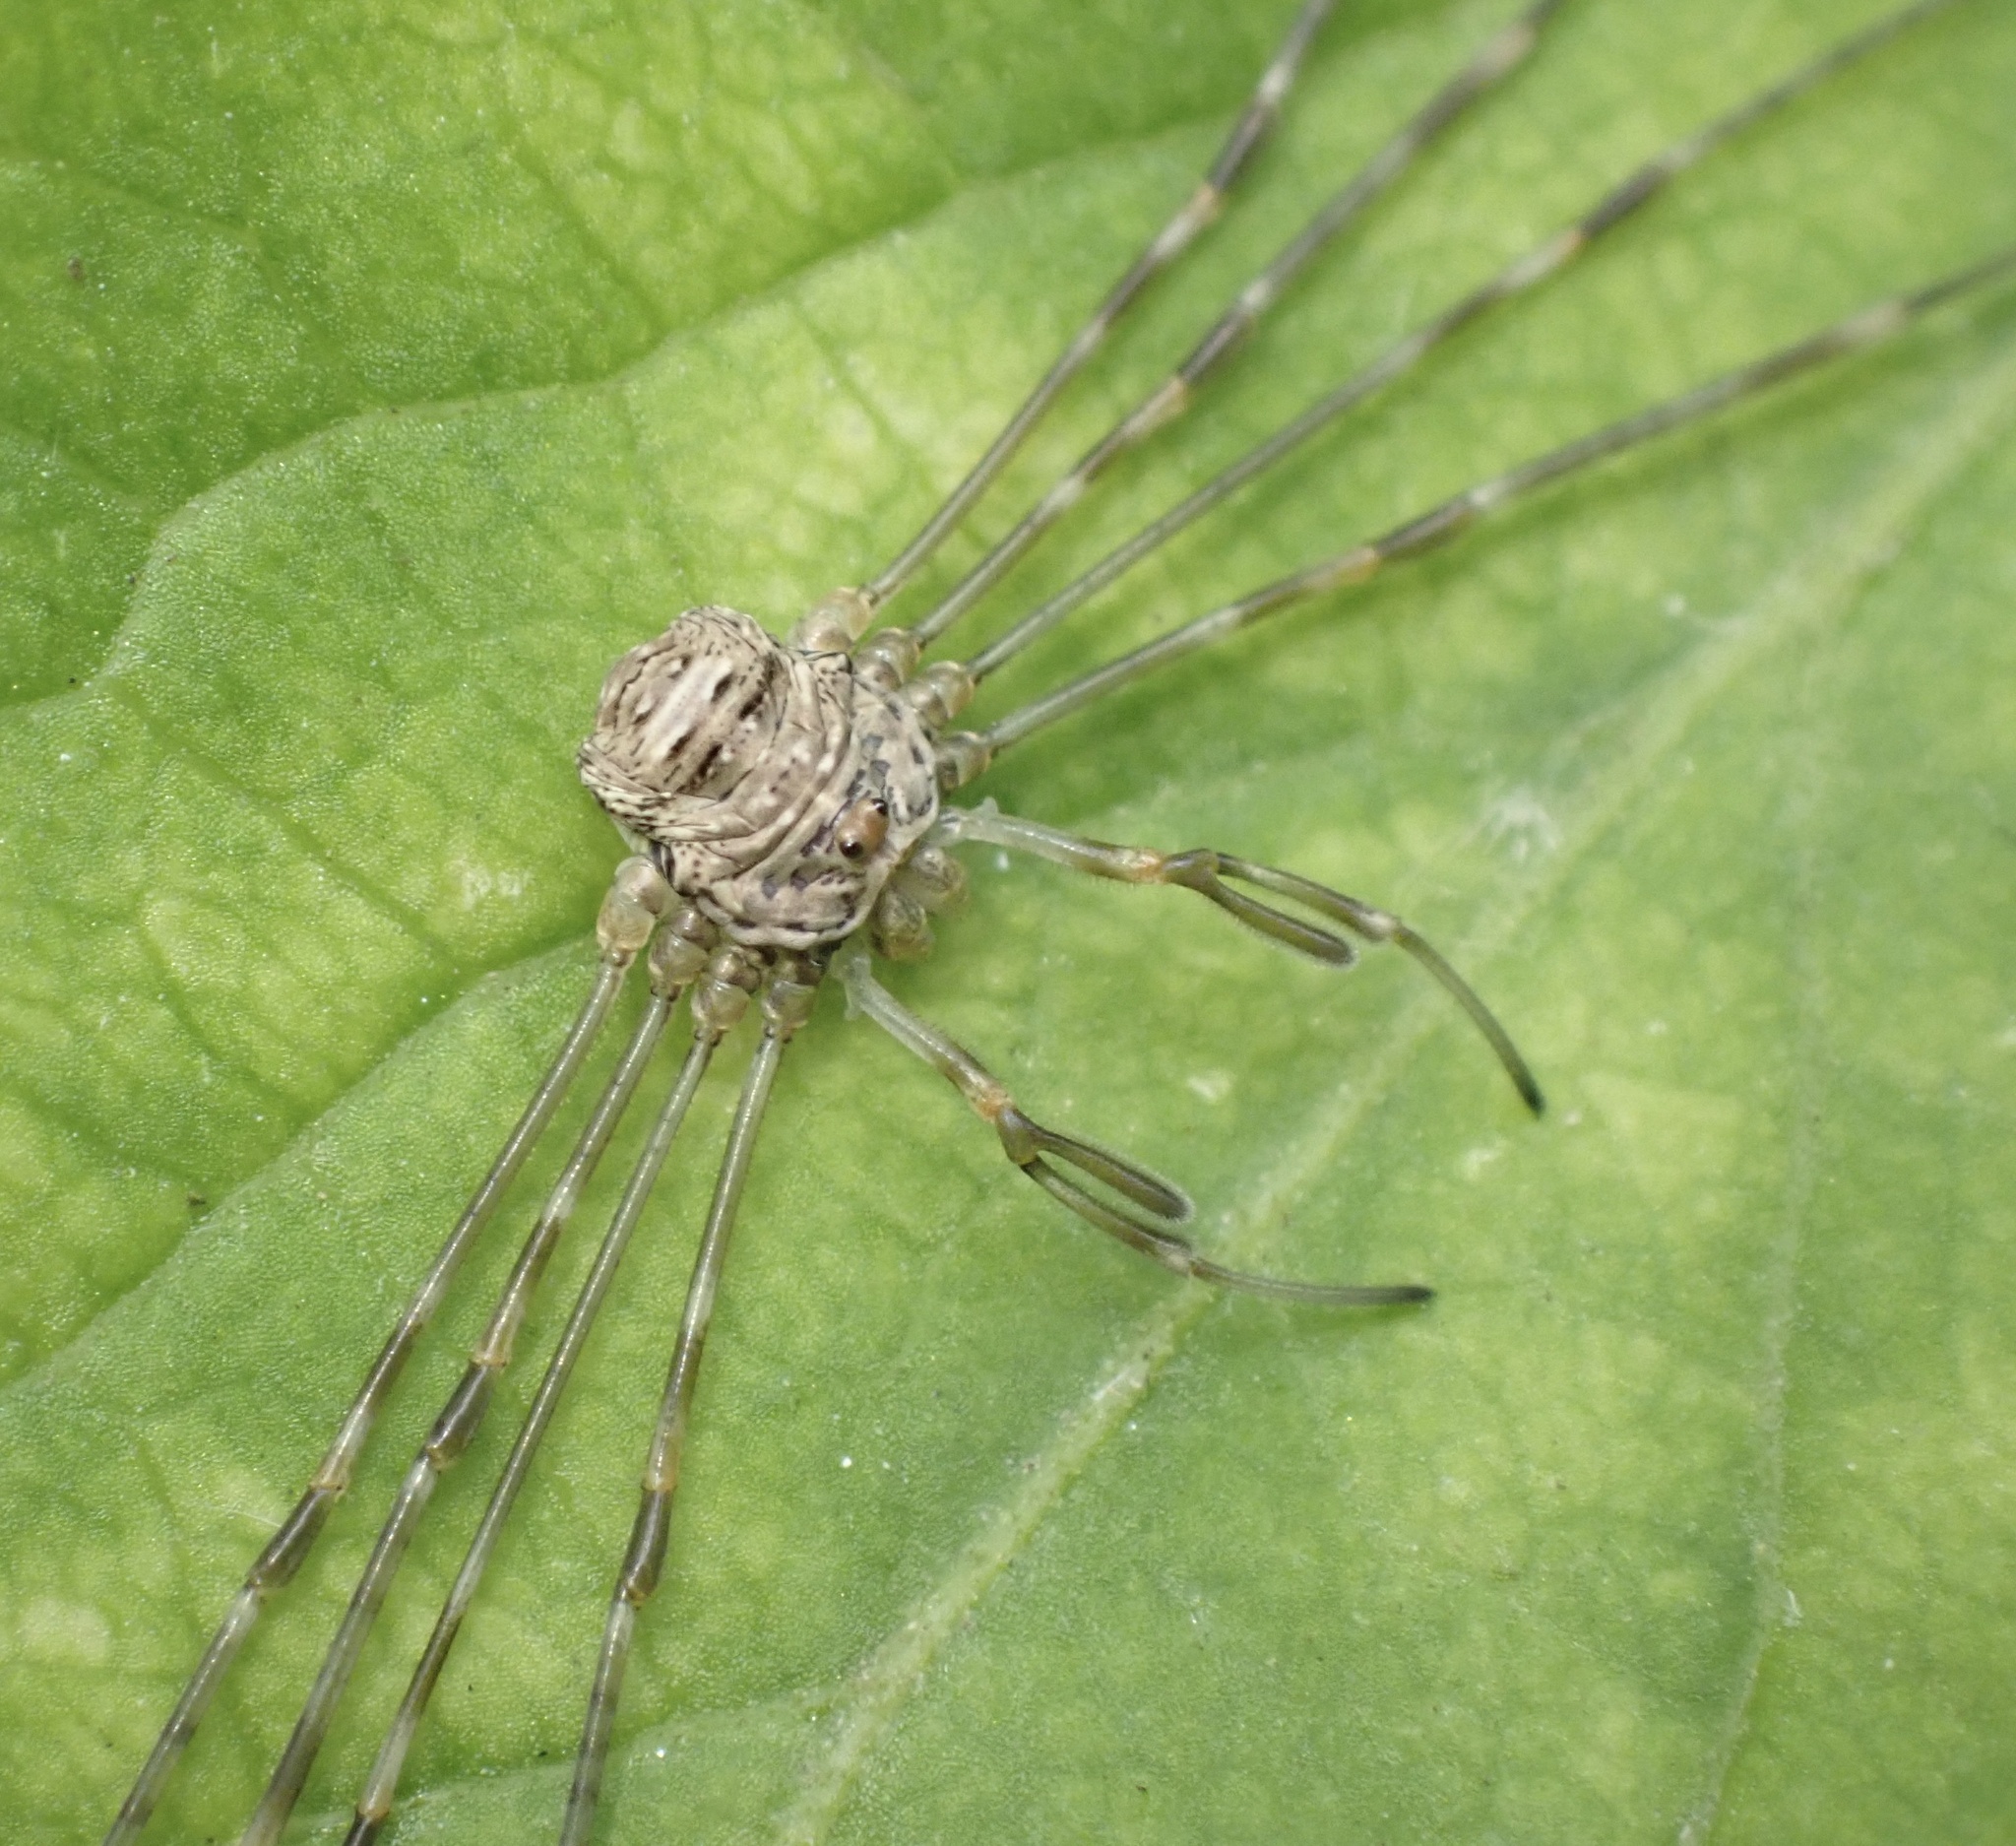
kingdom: Animalia
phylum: Arthropoda
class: Arachnida
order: Opiliones
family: Phalangiidae
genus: Dicranopalpus
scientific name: Dicranopalpus ramosus
